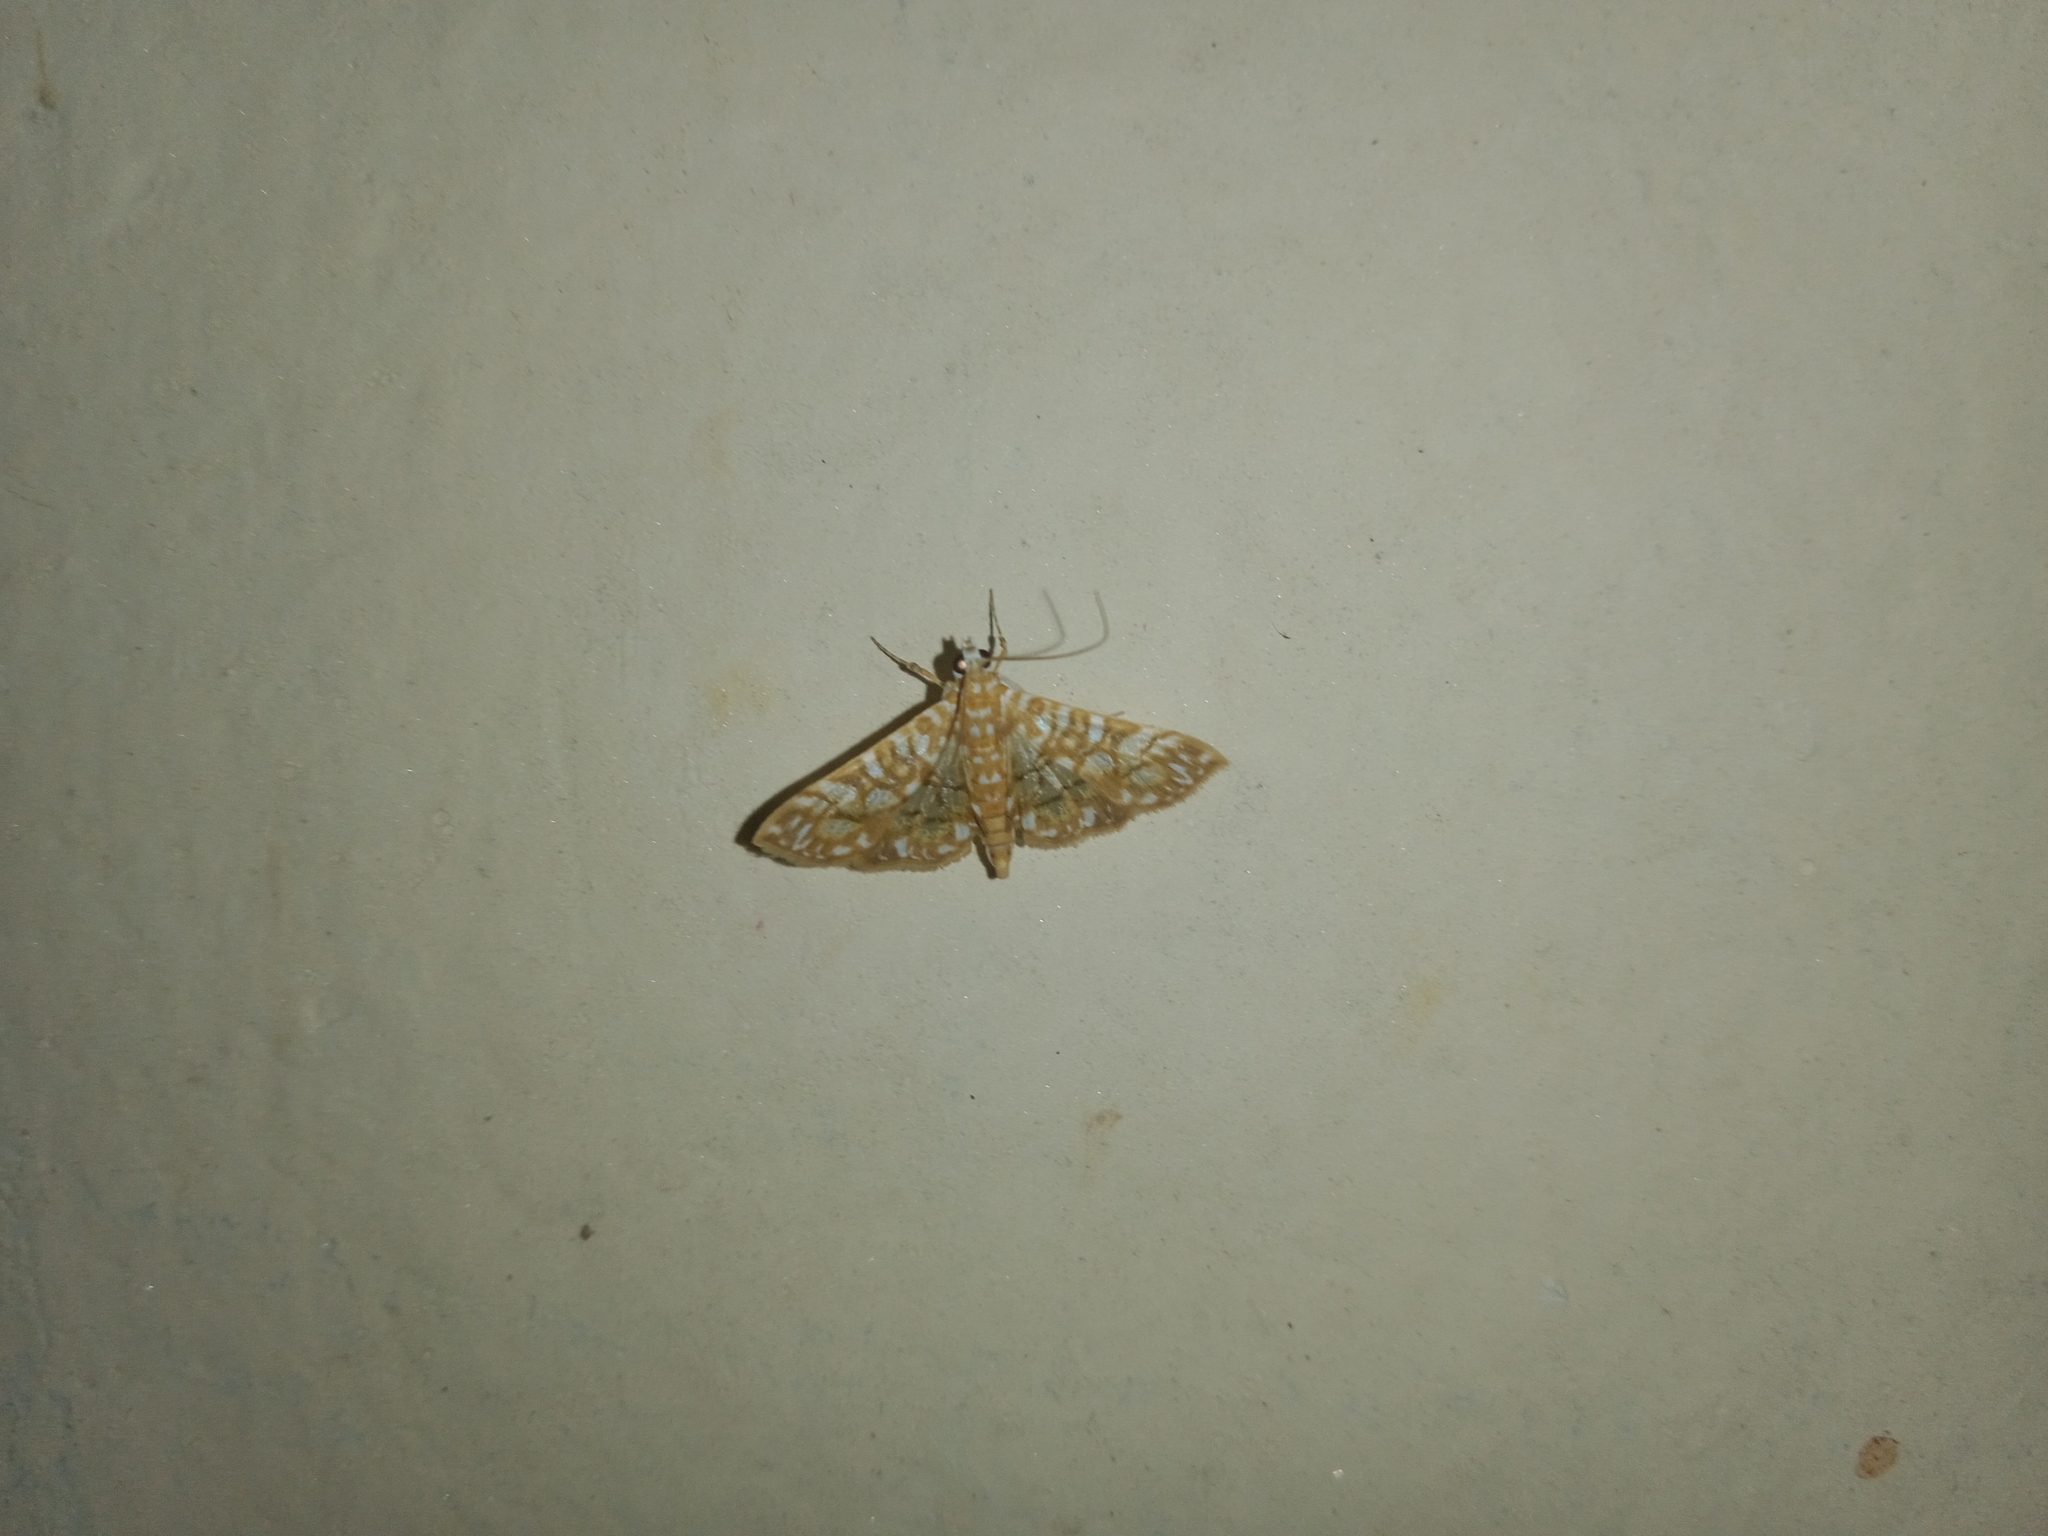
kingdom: Animalia
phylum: Arthropoda
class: Insecta
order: Lepidoptera
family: Crambidae
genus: Synclera
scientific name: Synclera traducalis
